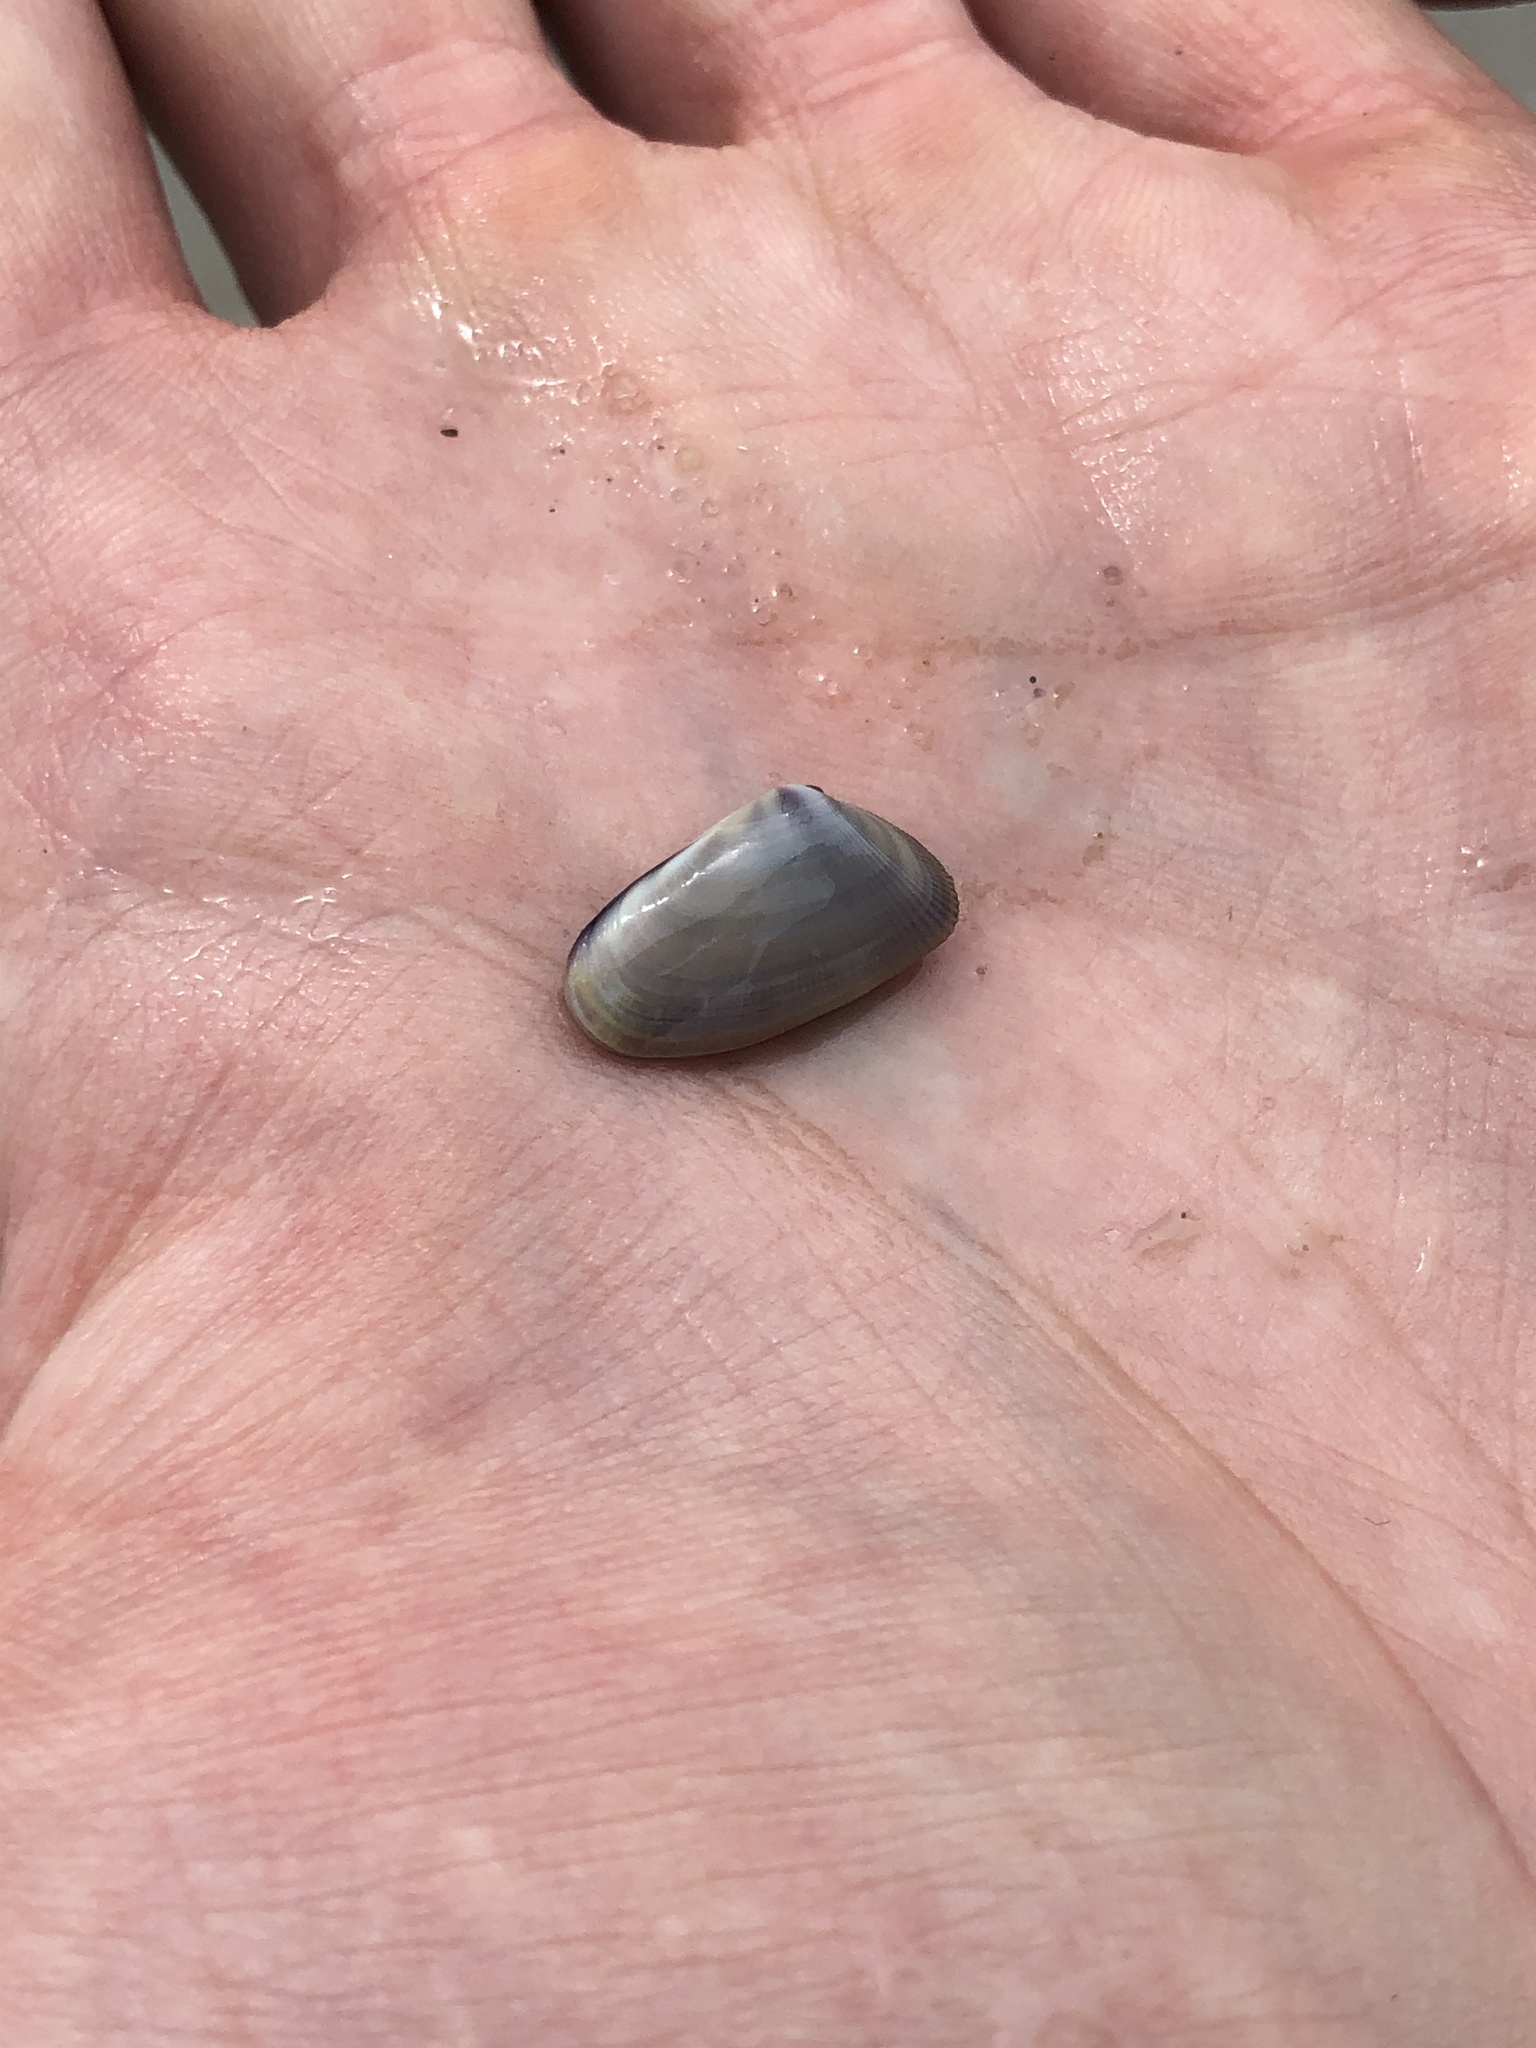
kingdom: Animalia
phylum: Mollusca
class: Bivalvia
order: Cardiida
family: Donacidae
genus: Donax
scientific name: Donax variabilis
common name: Butterfly shell
